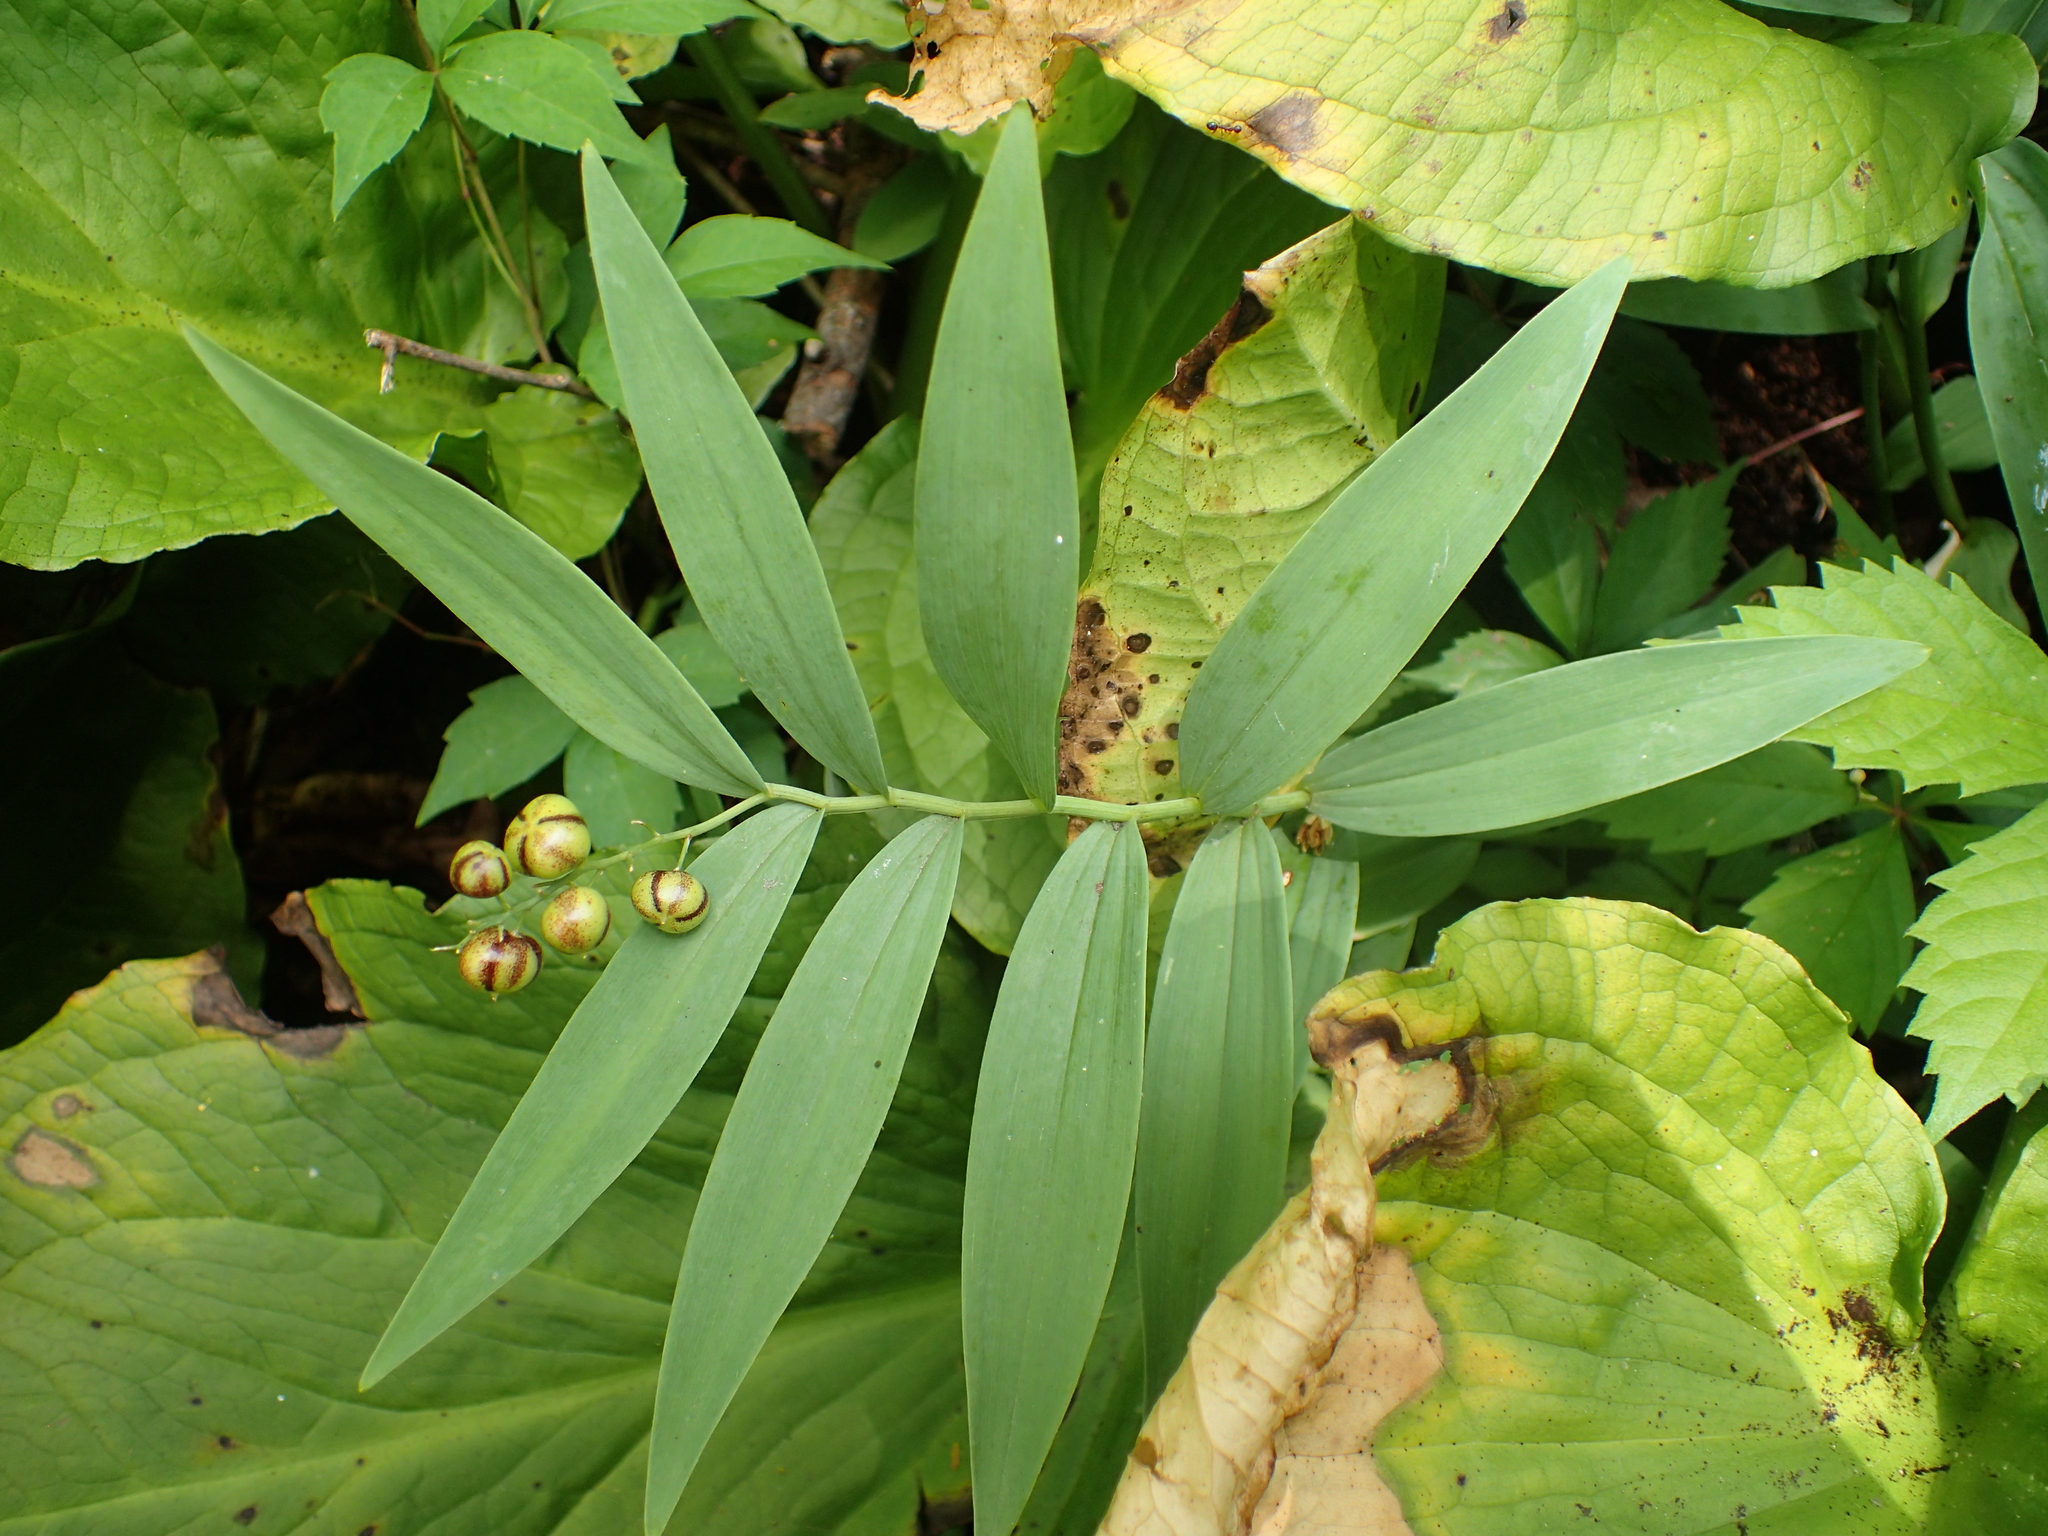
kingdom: Plantae
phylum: Tracheophyta
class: Liliopsida
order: Asparagales
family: Asparagaceae
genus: Maianthemum
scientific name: Maianthemum stellatum
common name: Little false solomon's seal
